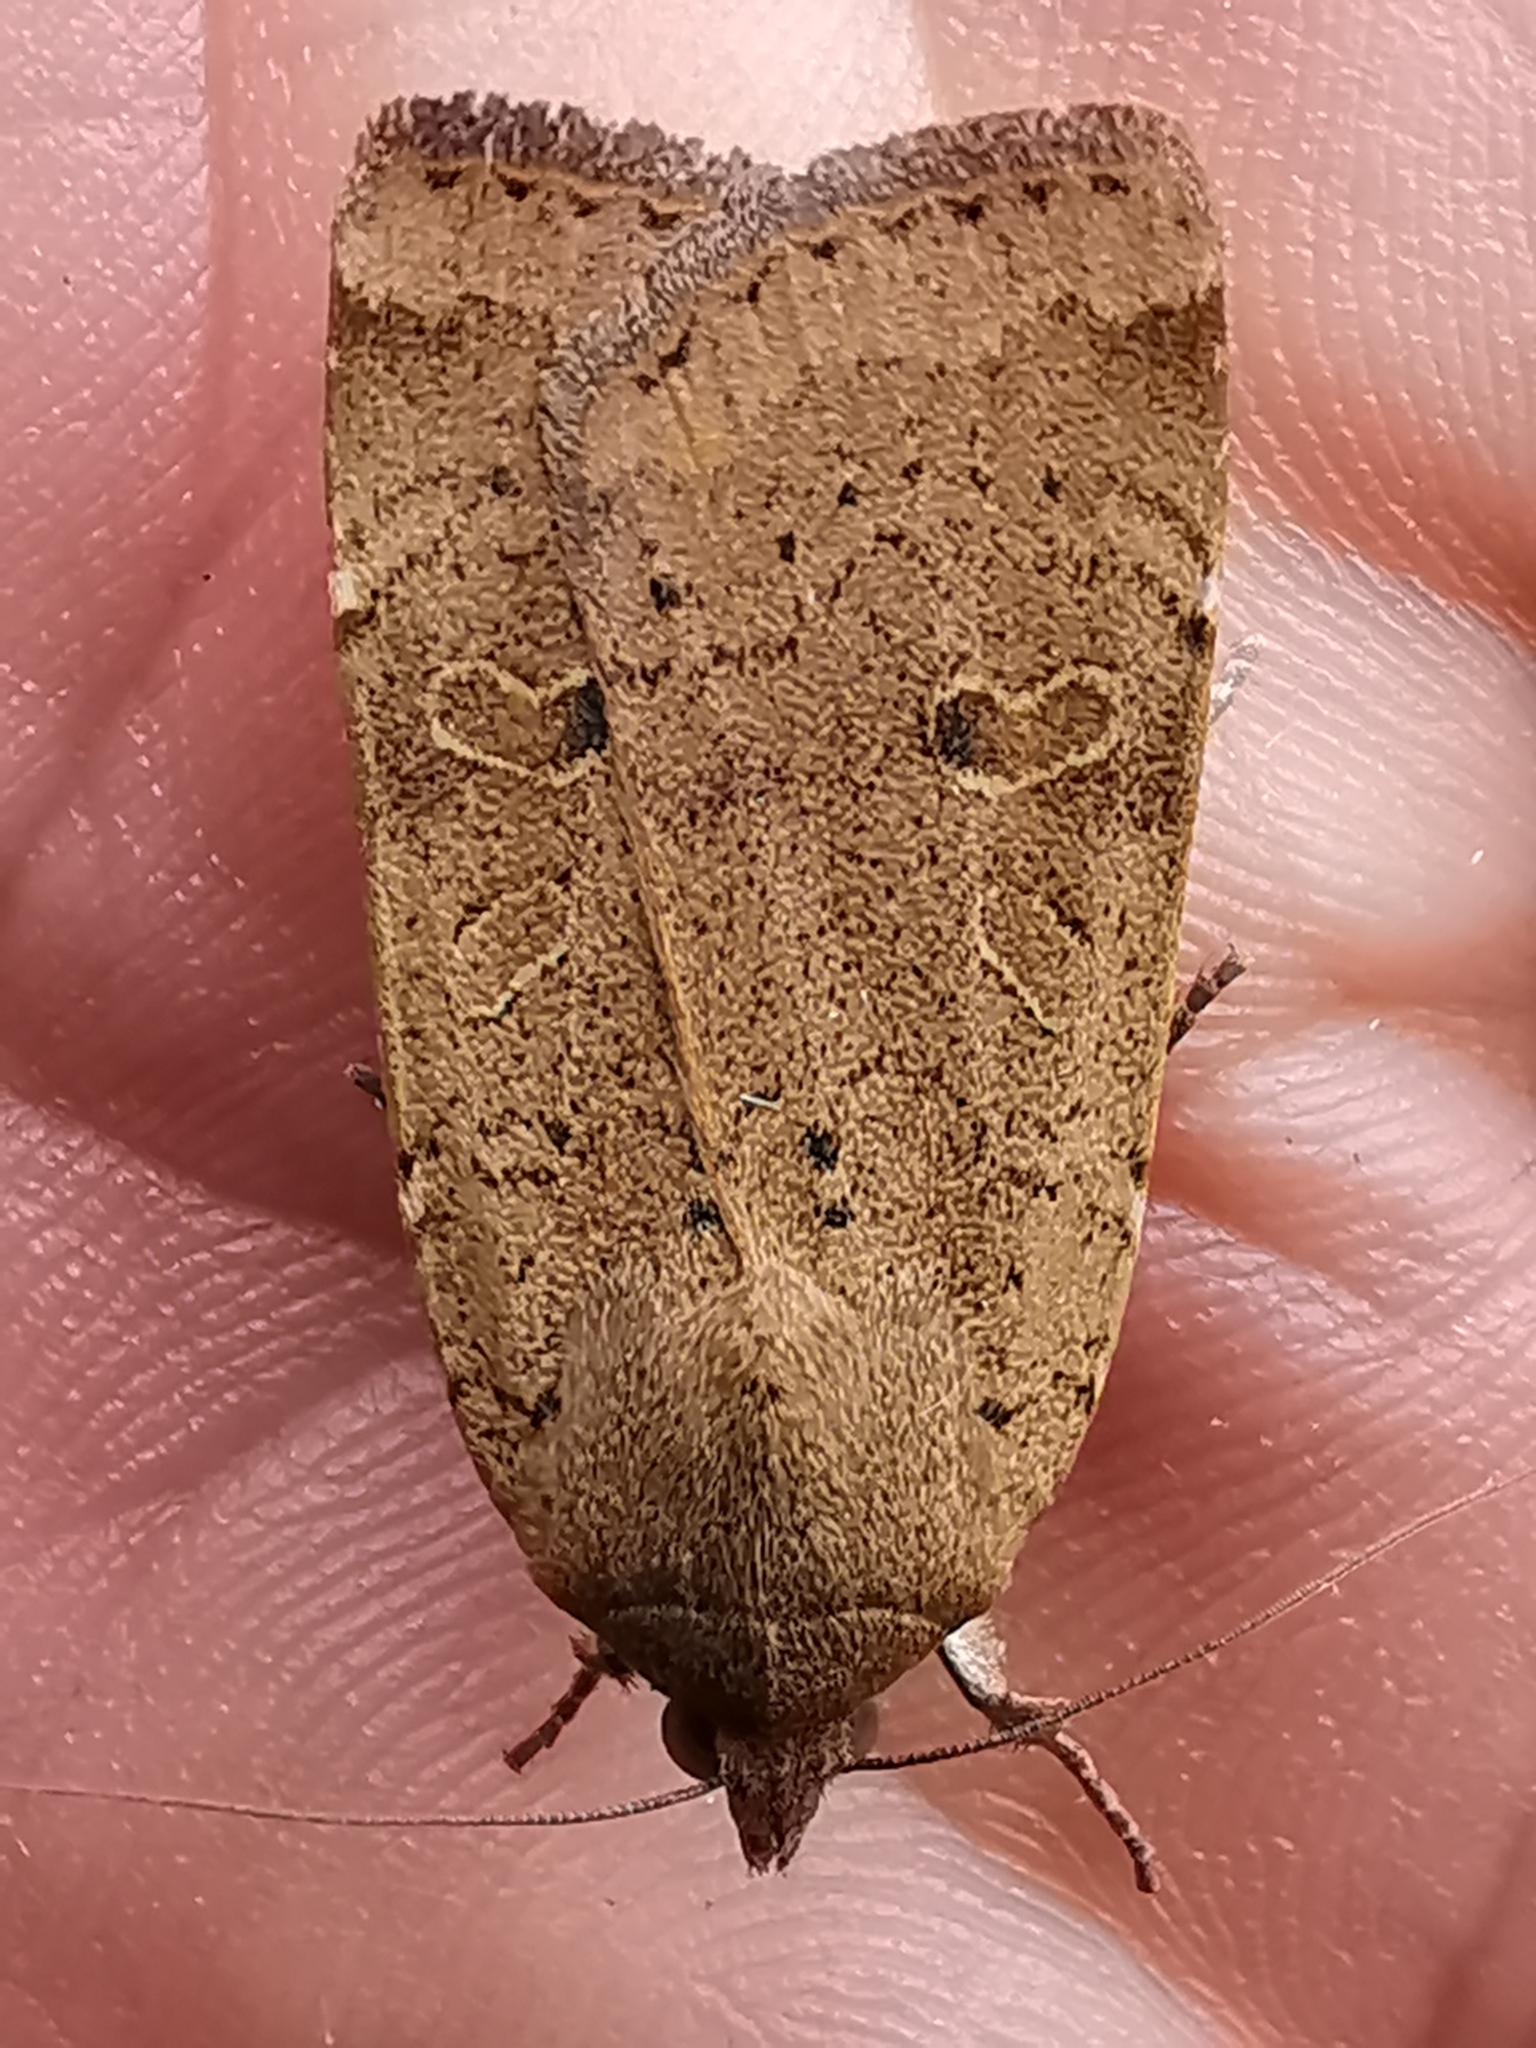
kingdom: Animalia
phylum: Arthropoda
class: Insecta
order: Lepidoptera
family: Noctuidae
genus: Noctua
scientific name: Noctua comes
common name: Lesser yellow underwing
